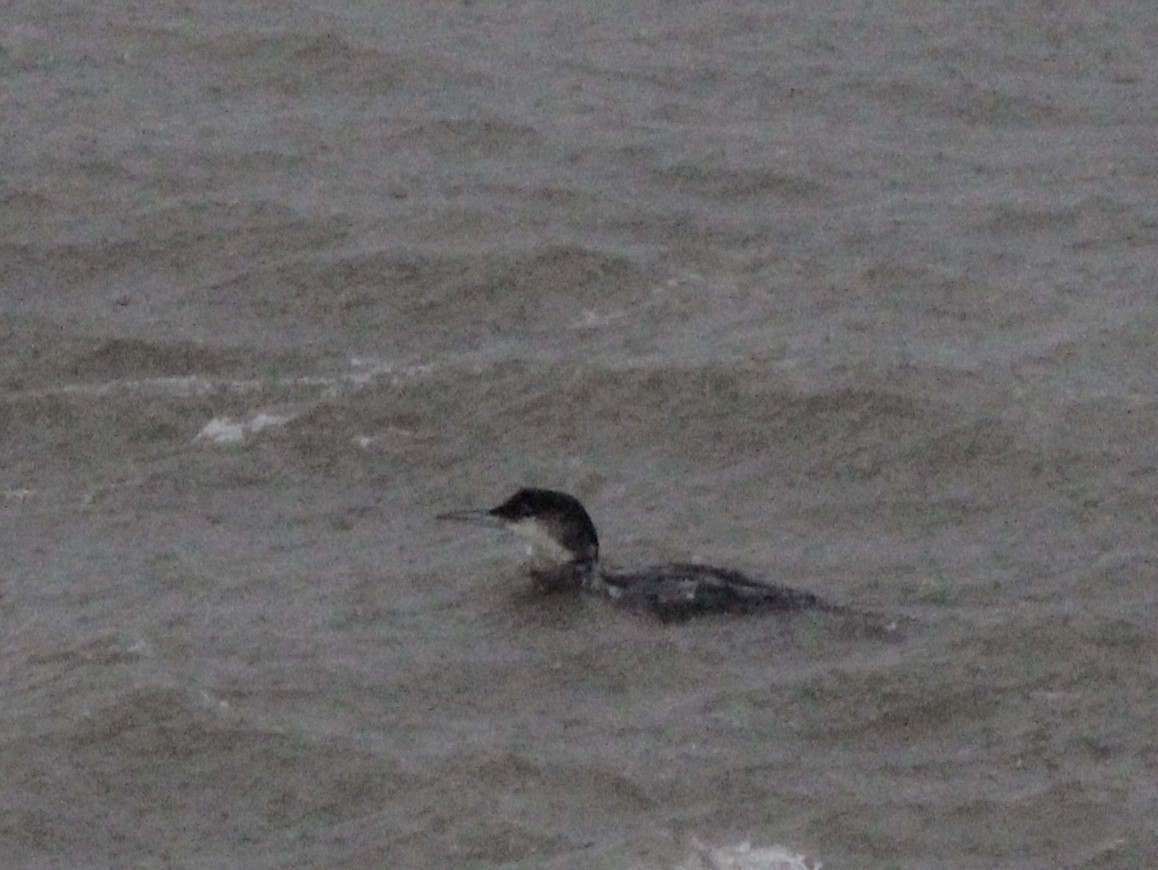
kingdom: Animalia
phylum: Chordata
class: Aves
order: Gaviiformes
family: Gaviidae
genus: Gavia
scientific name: Gavia immer
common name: Common loon
